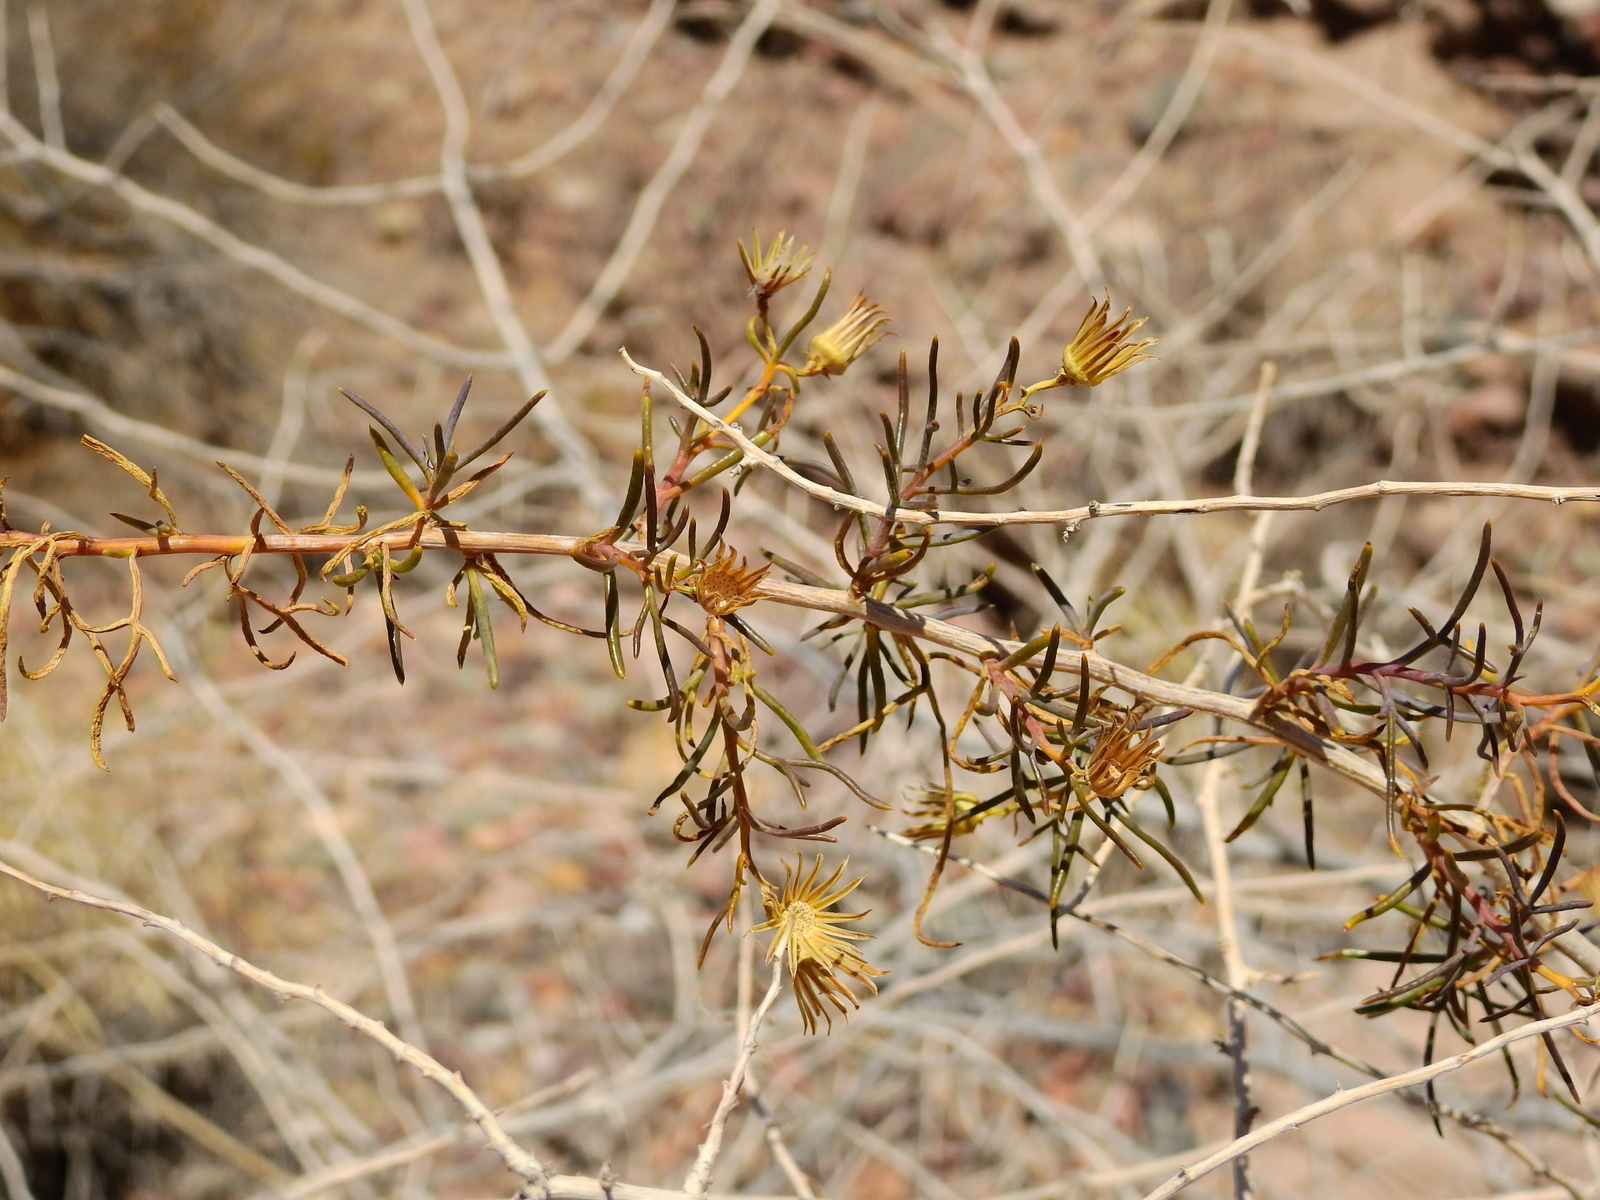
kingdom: Plantae
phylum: Tracheophyta
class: Magnoliopsida
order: Asterales
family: Asteraceae
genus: Senecio
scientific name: Senecio subulatus
